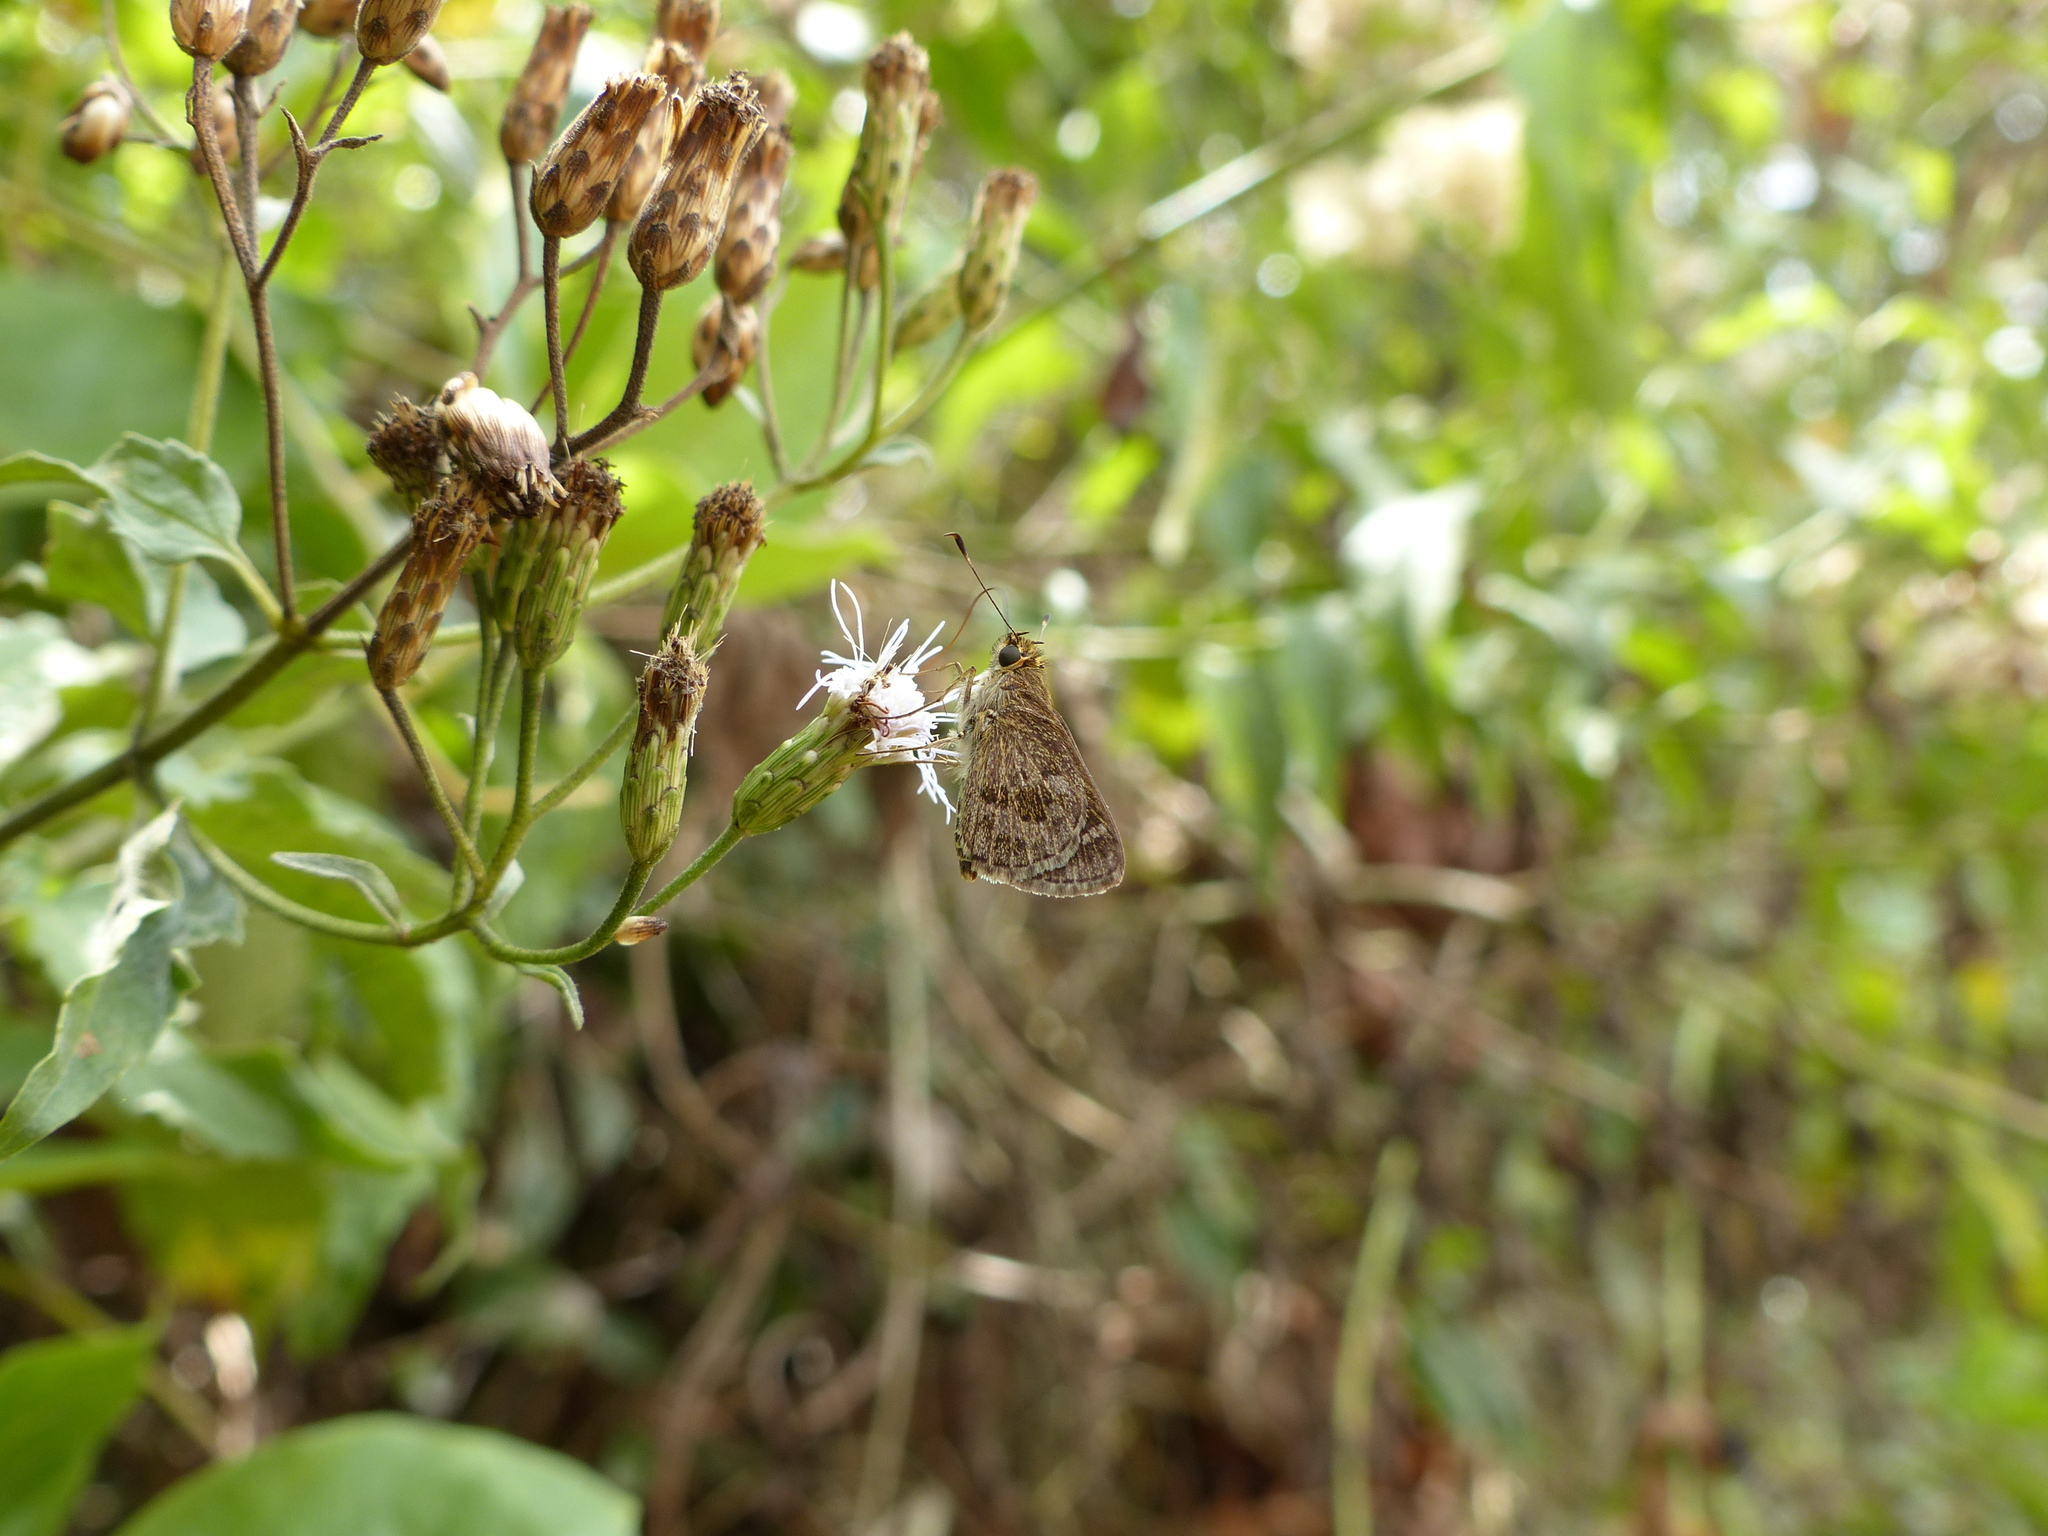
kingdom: Animalia
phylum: Arthropoda
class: Insecta
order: Lepidoptera
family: Hesperiidae
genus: Callimormus
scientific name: Callimormus corades
